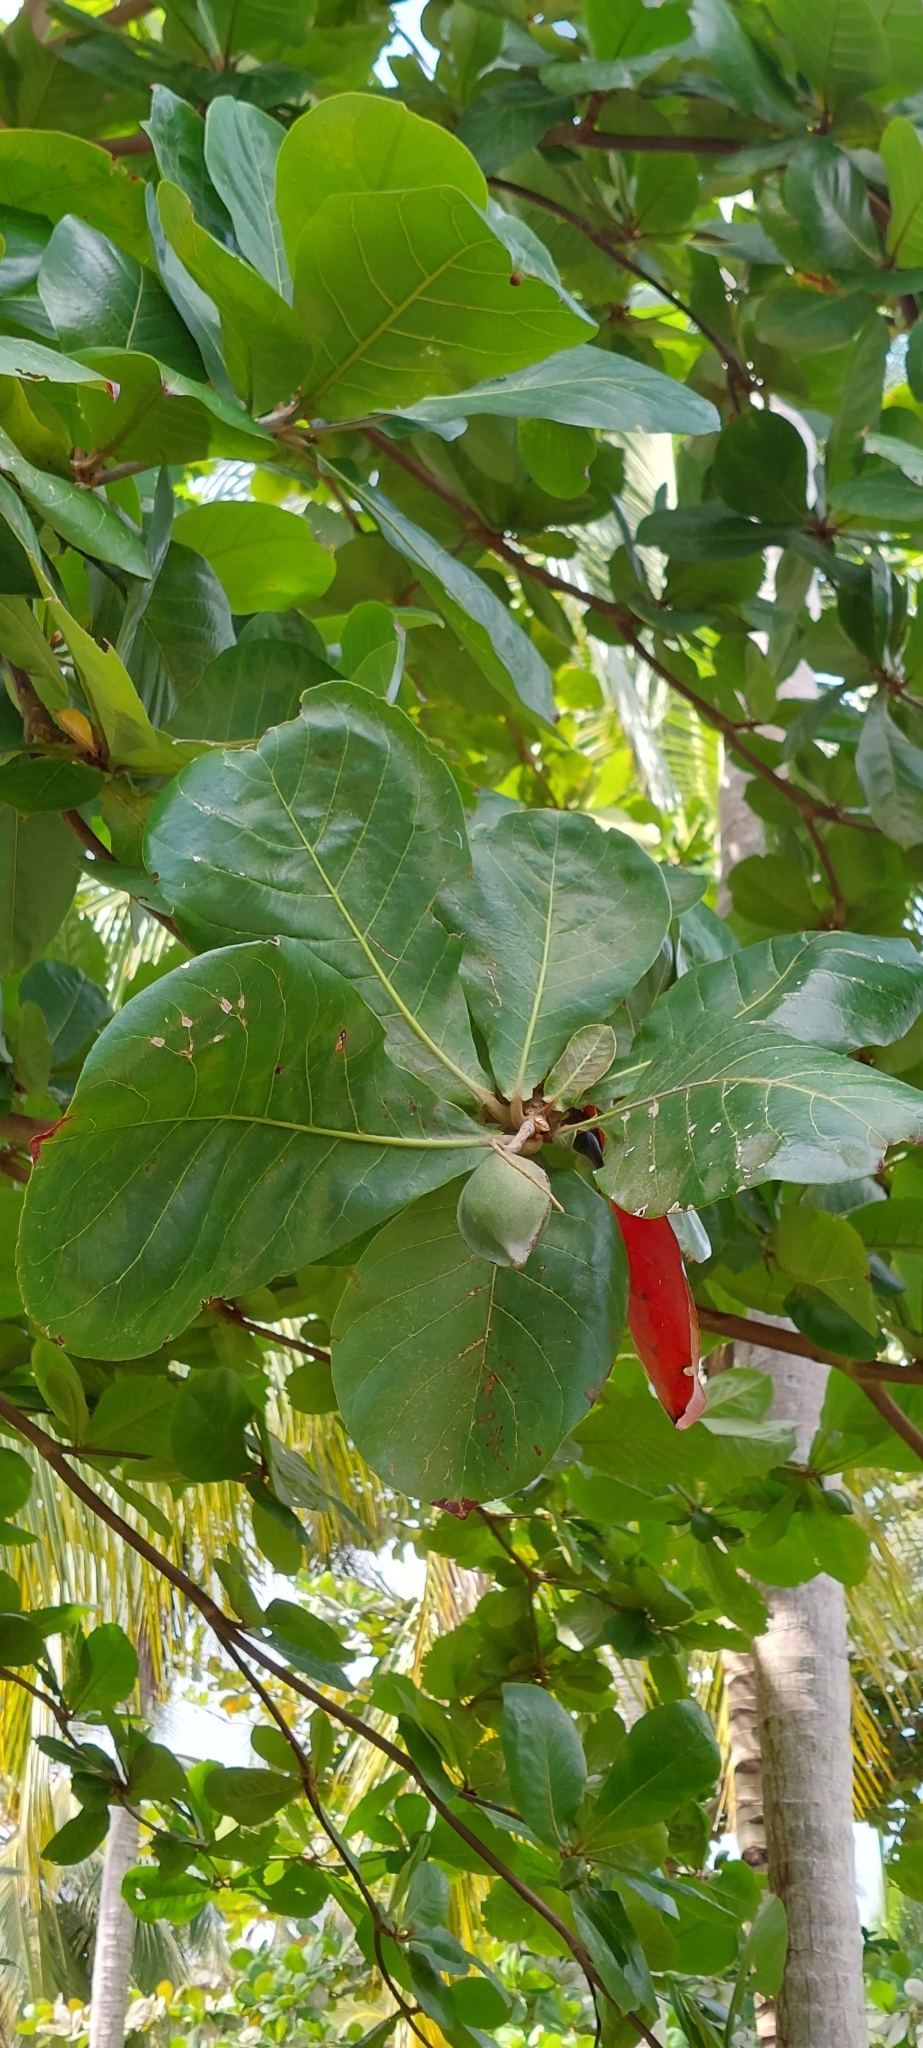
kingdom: Plantae
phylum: Tracheophyta
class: Magnoliopsida
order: Myrtales
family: Combretaceae
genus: Terminalia
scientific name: Terminalia catappa
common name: Tropical almond
